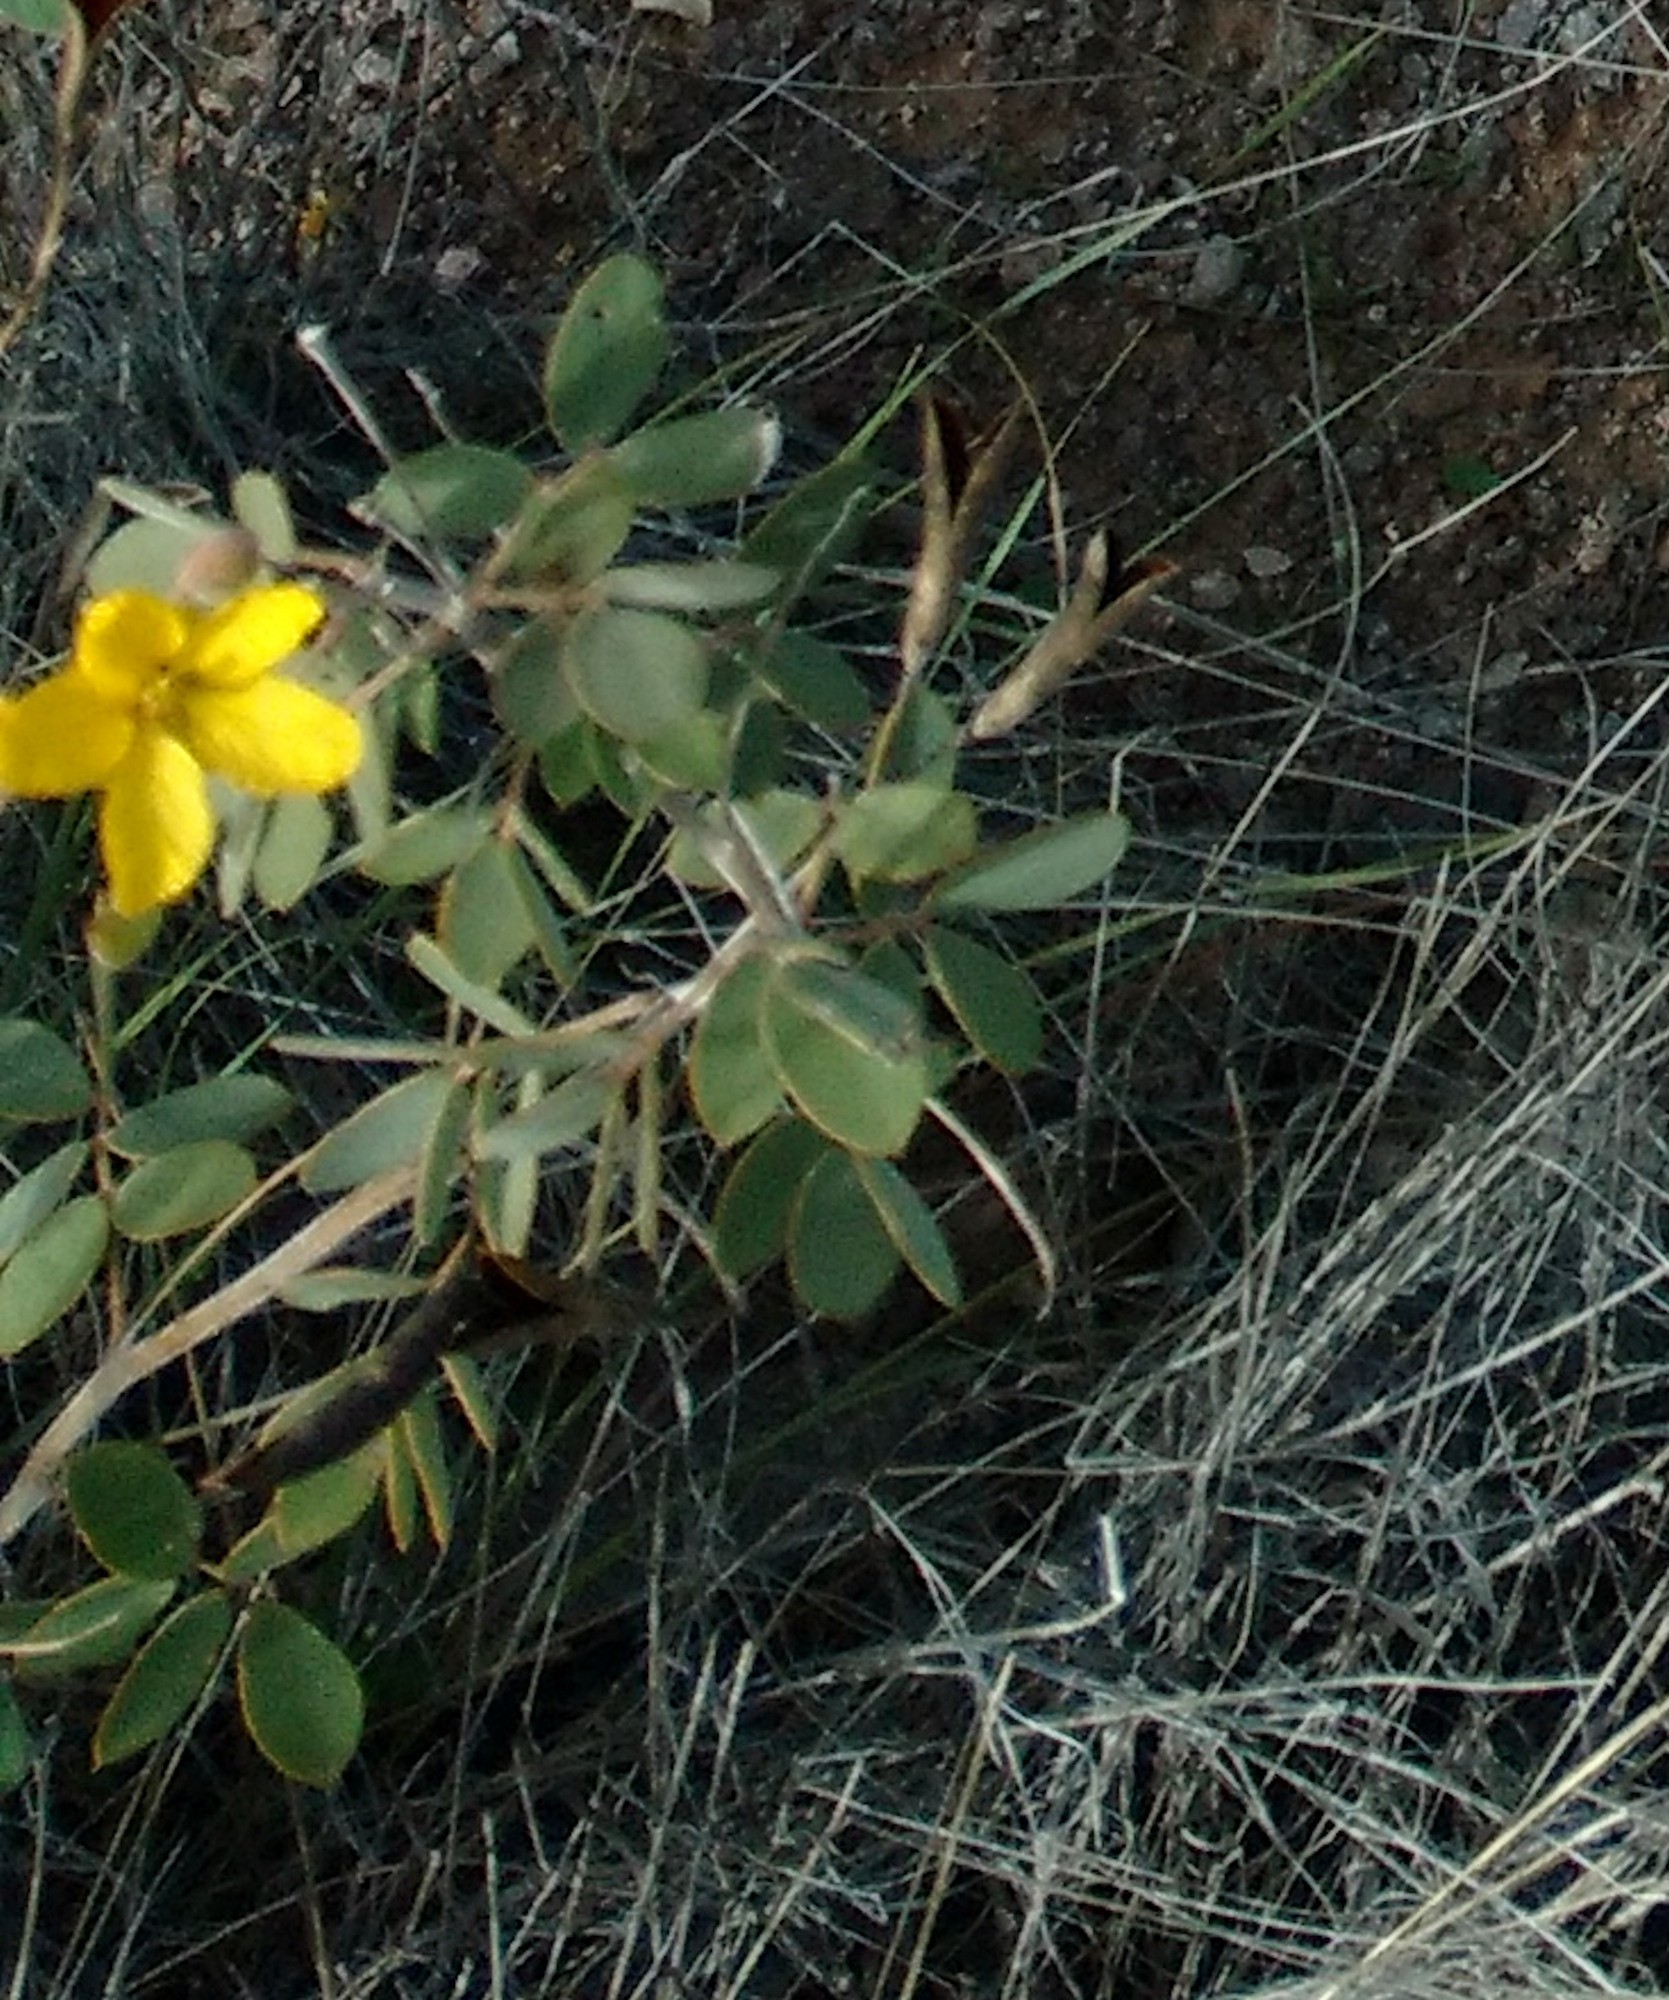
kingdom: Plantae
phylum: Tracheophyta
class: Magnoliopsida
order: Fabales
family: Fabaceae
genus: Senna
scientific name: Senna covesii
